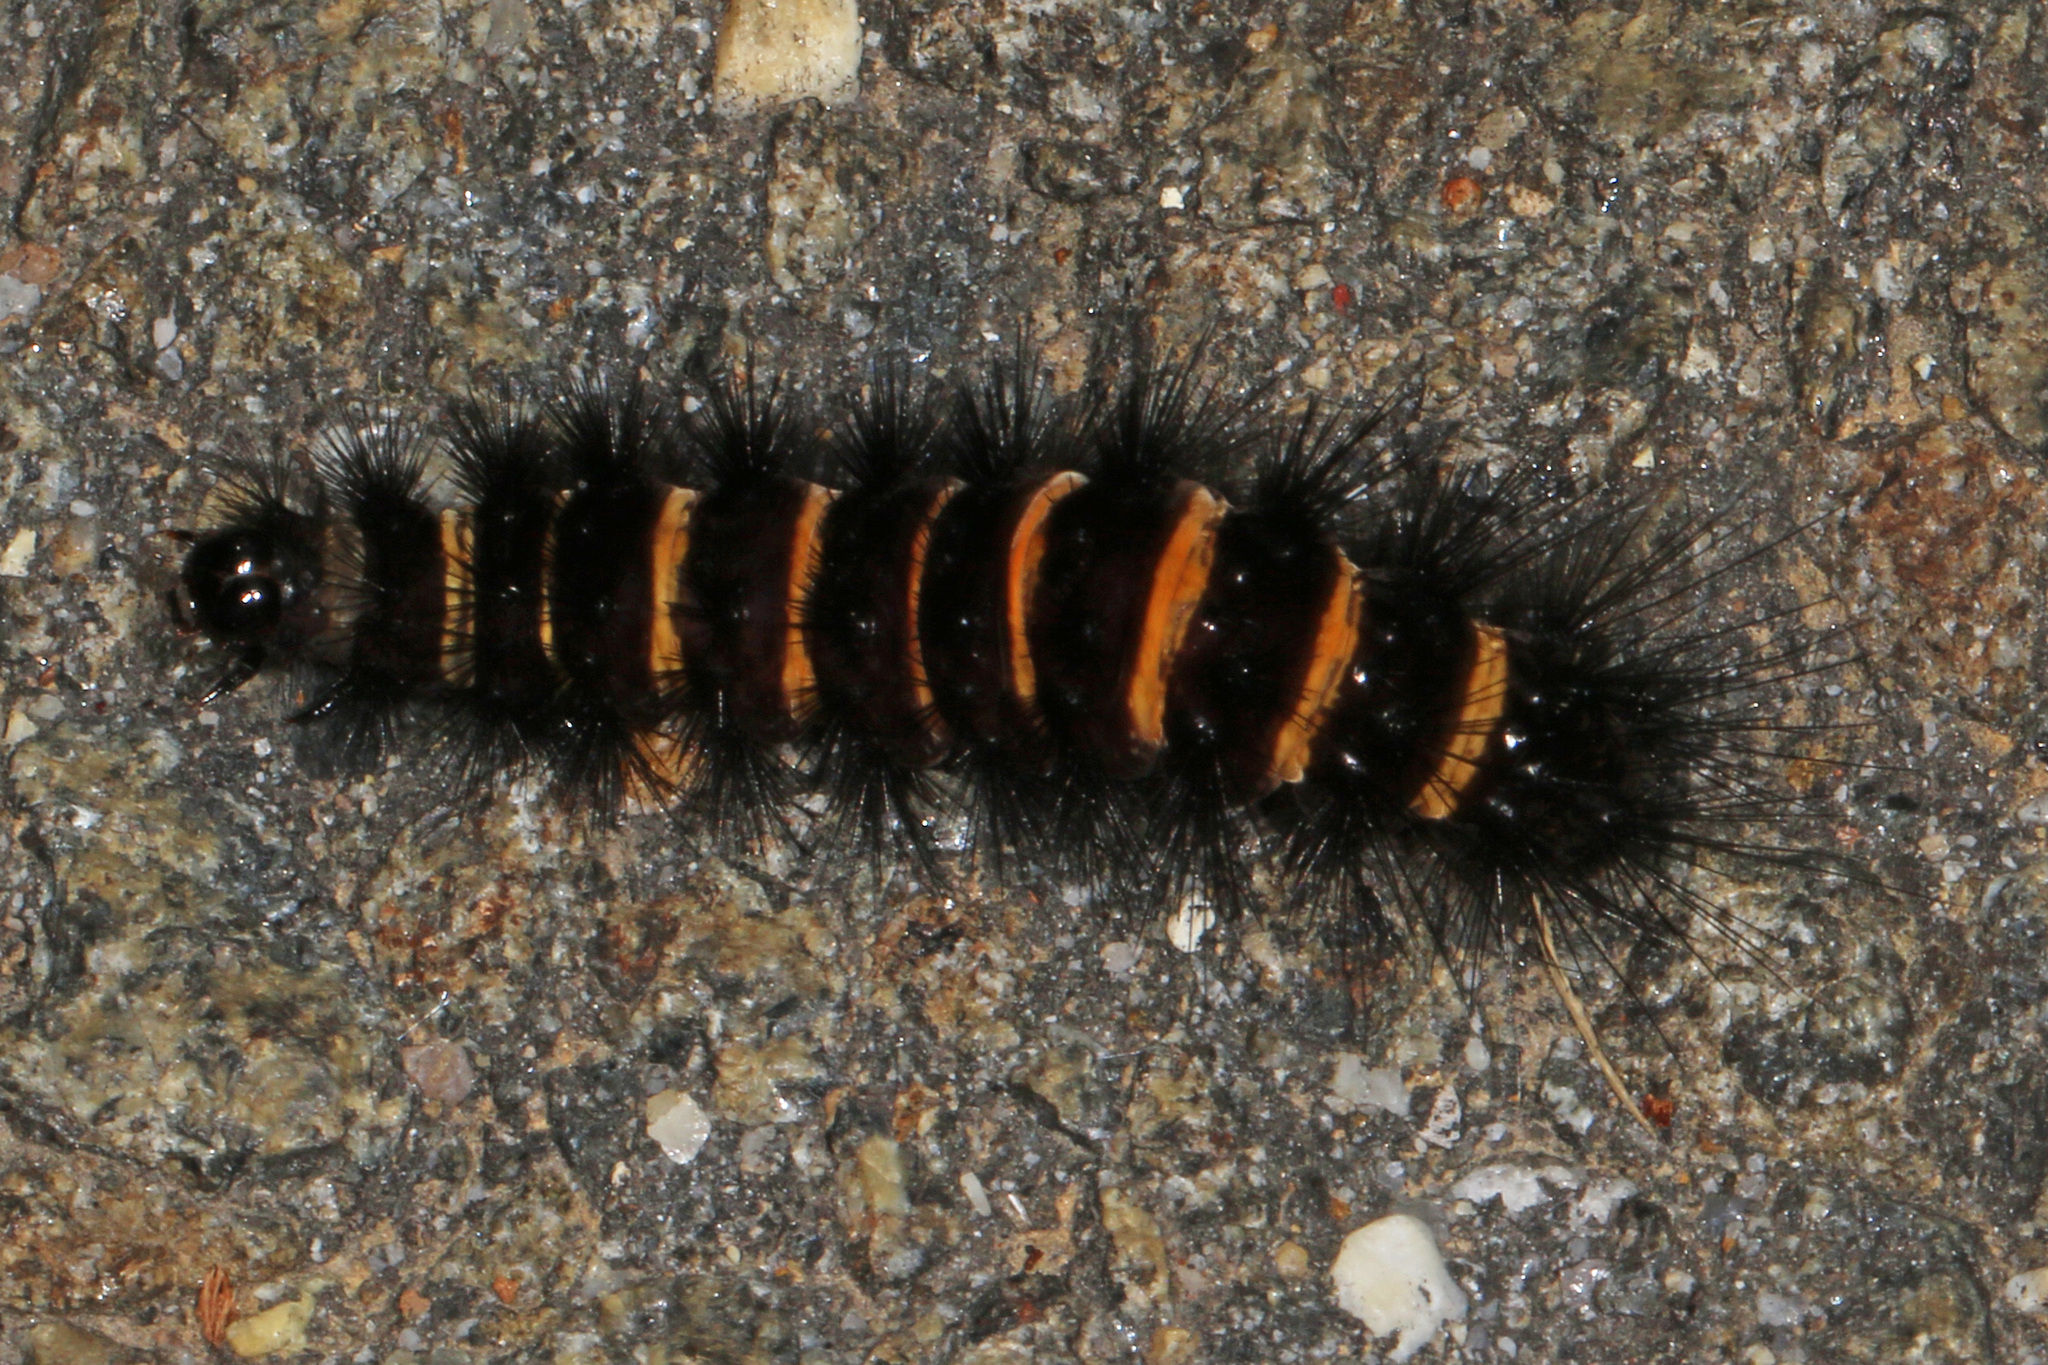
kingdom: Animalia
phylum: Arthropoda
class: Insecta
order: Lepidoptera
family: Erebidae
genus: Spilosoma
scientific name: Spilosoma congrua
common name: Agreeable tiger moth
